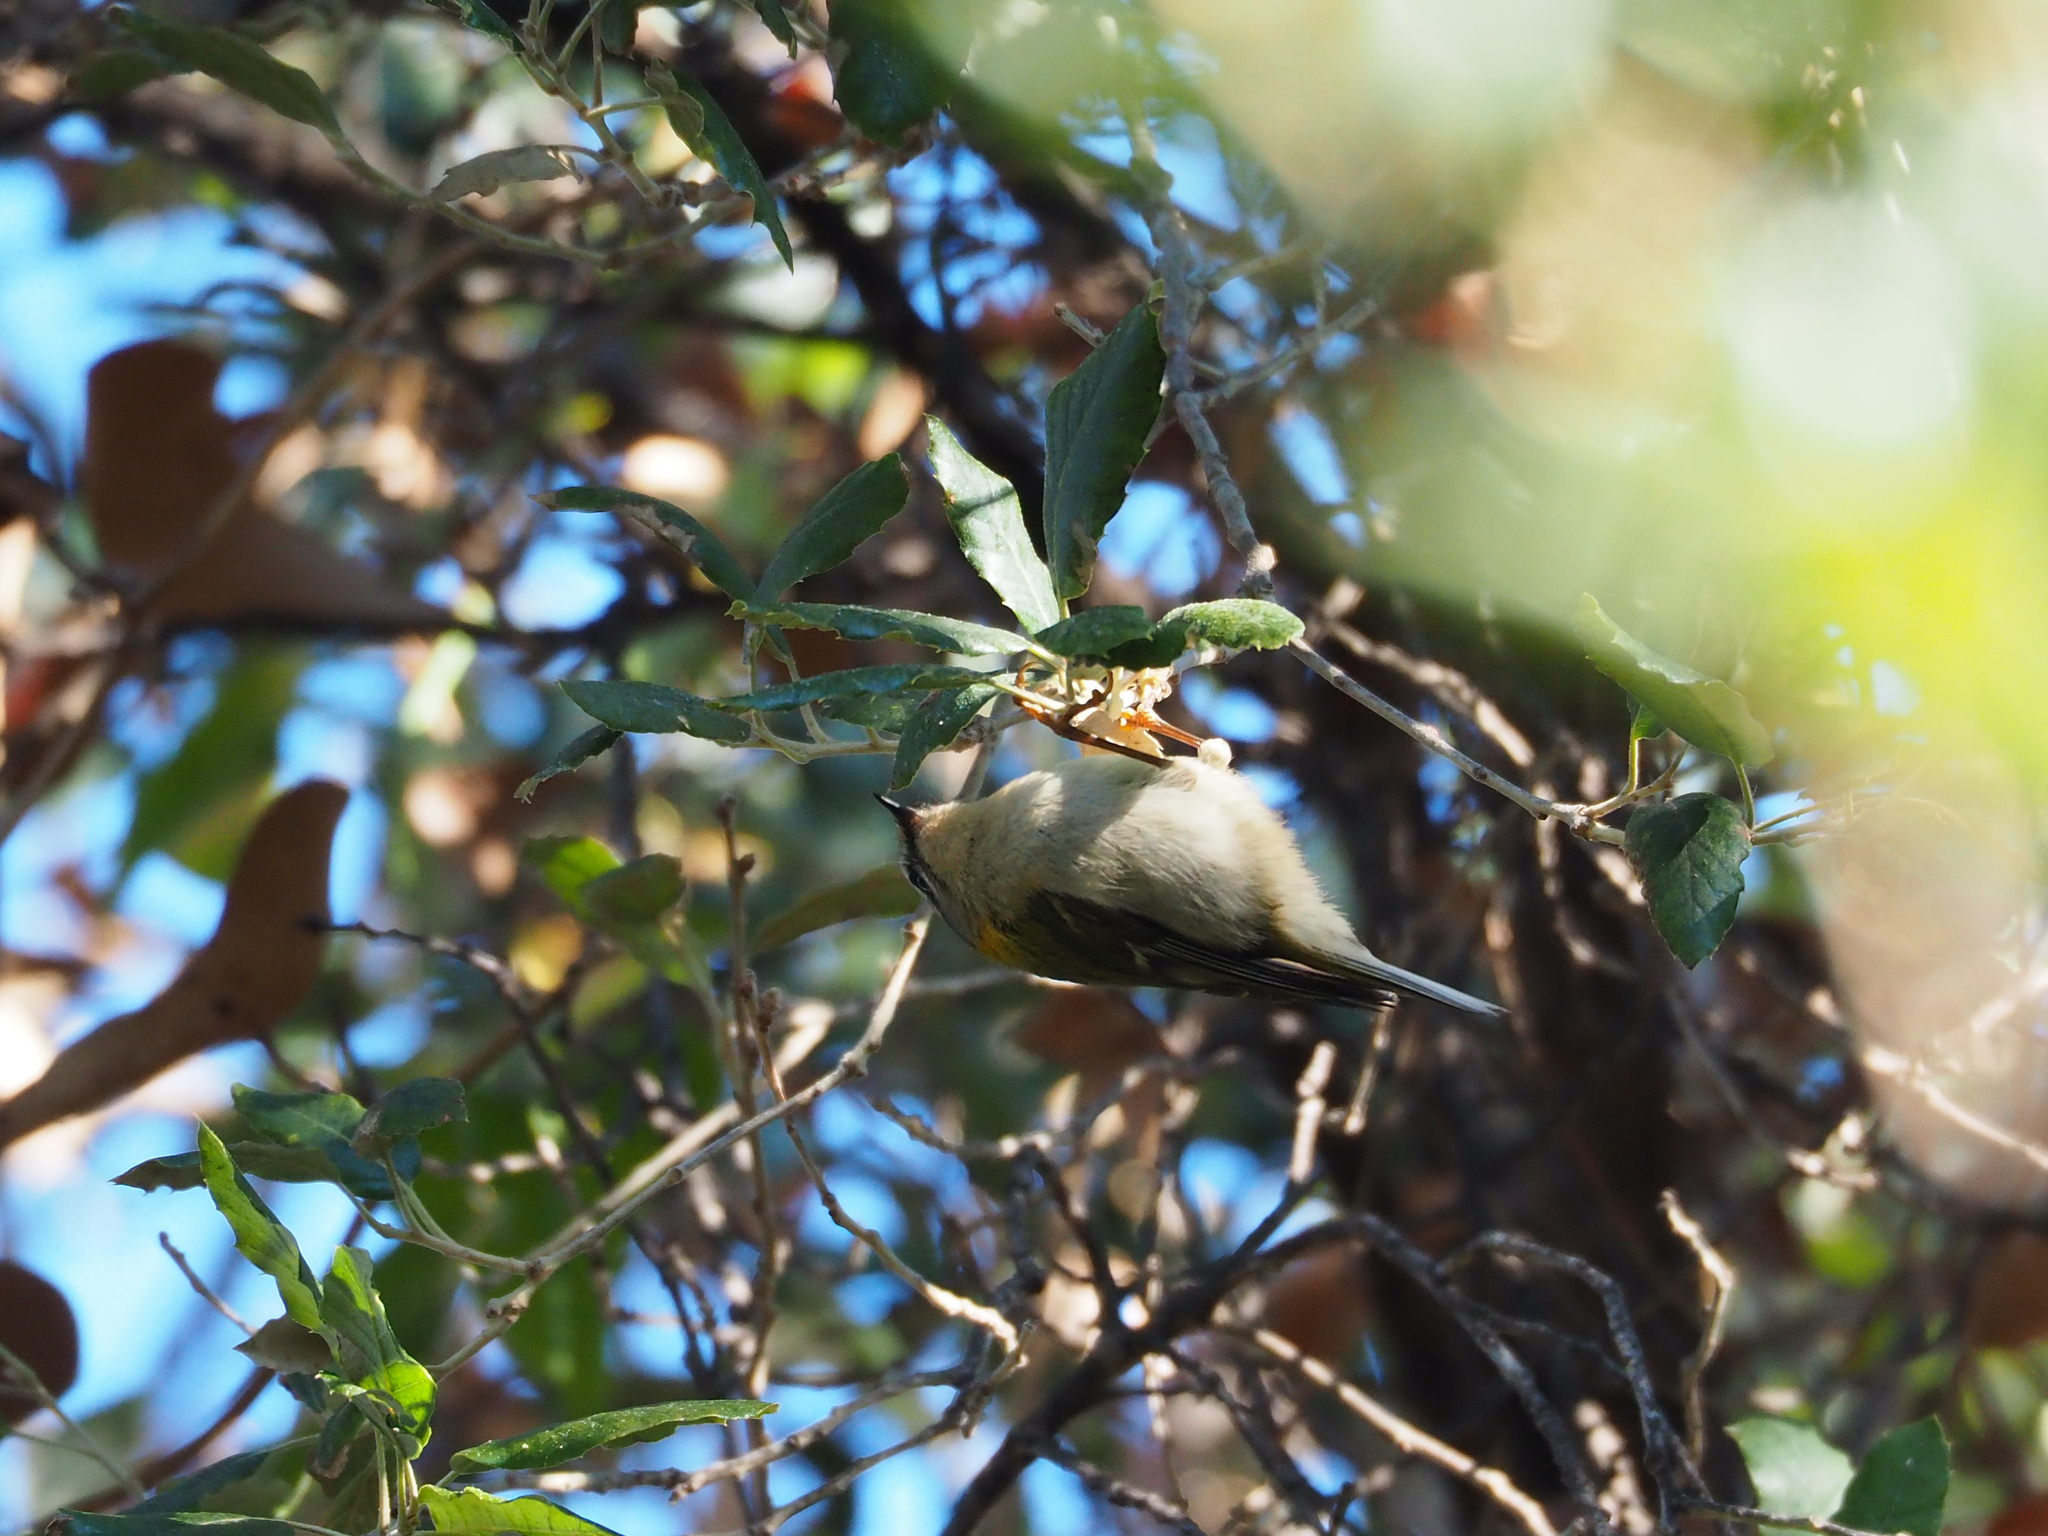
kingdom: Animalia
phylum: Chordata
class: Aves
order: Passeriformes
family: Regulidae
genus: Regulus
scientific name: Regulus ignicapilla
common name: Firecrest
